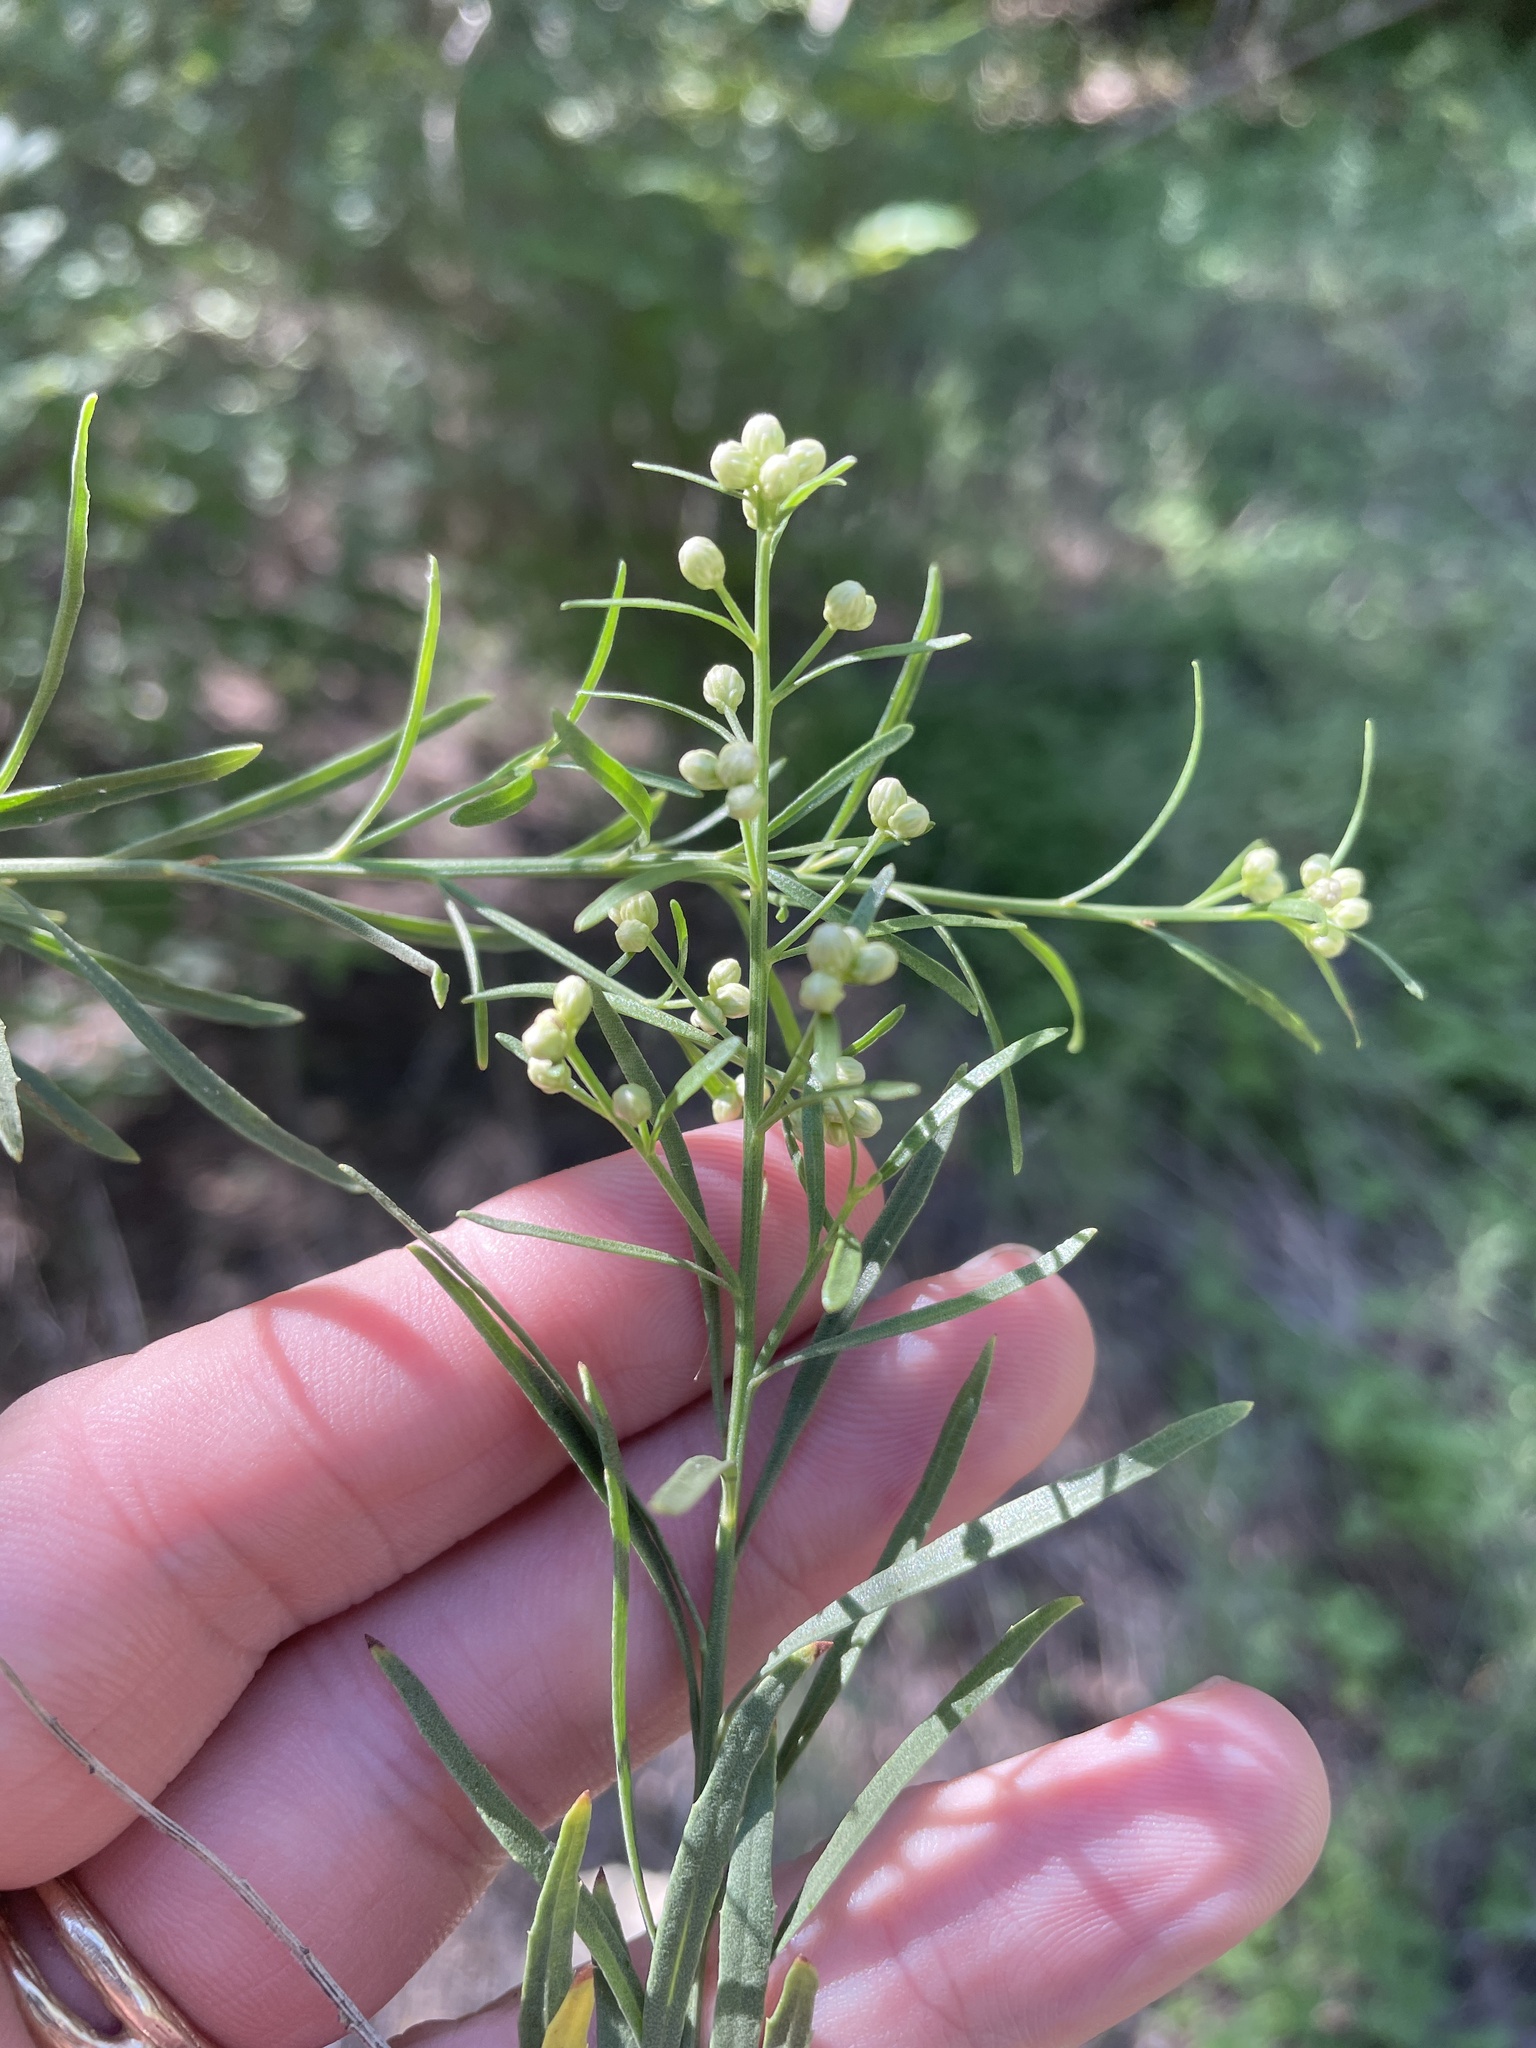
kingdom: Plantae
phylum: Tracheophyta
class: Magnoliopsida
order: Asterales
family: Asteraceae
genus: Baccharis
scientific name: Baccharis neglecta
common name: Roosevelt-weed
